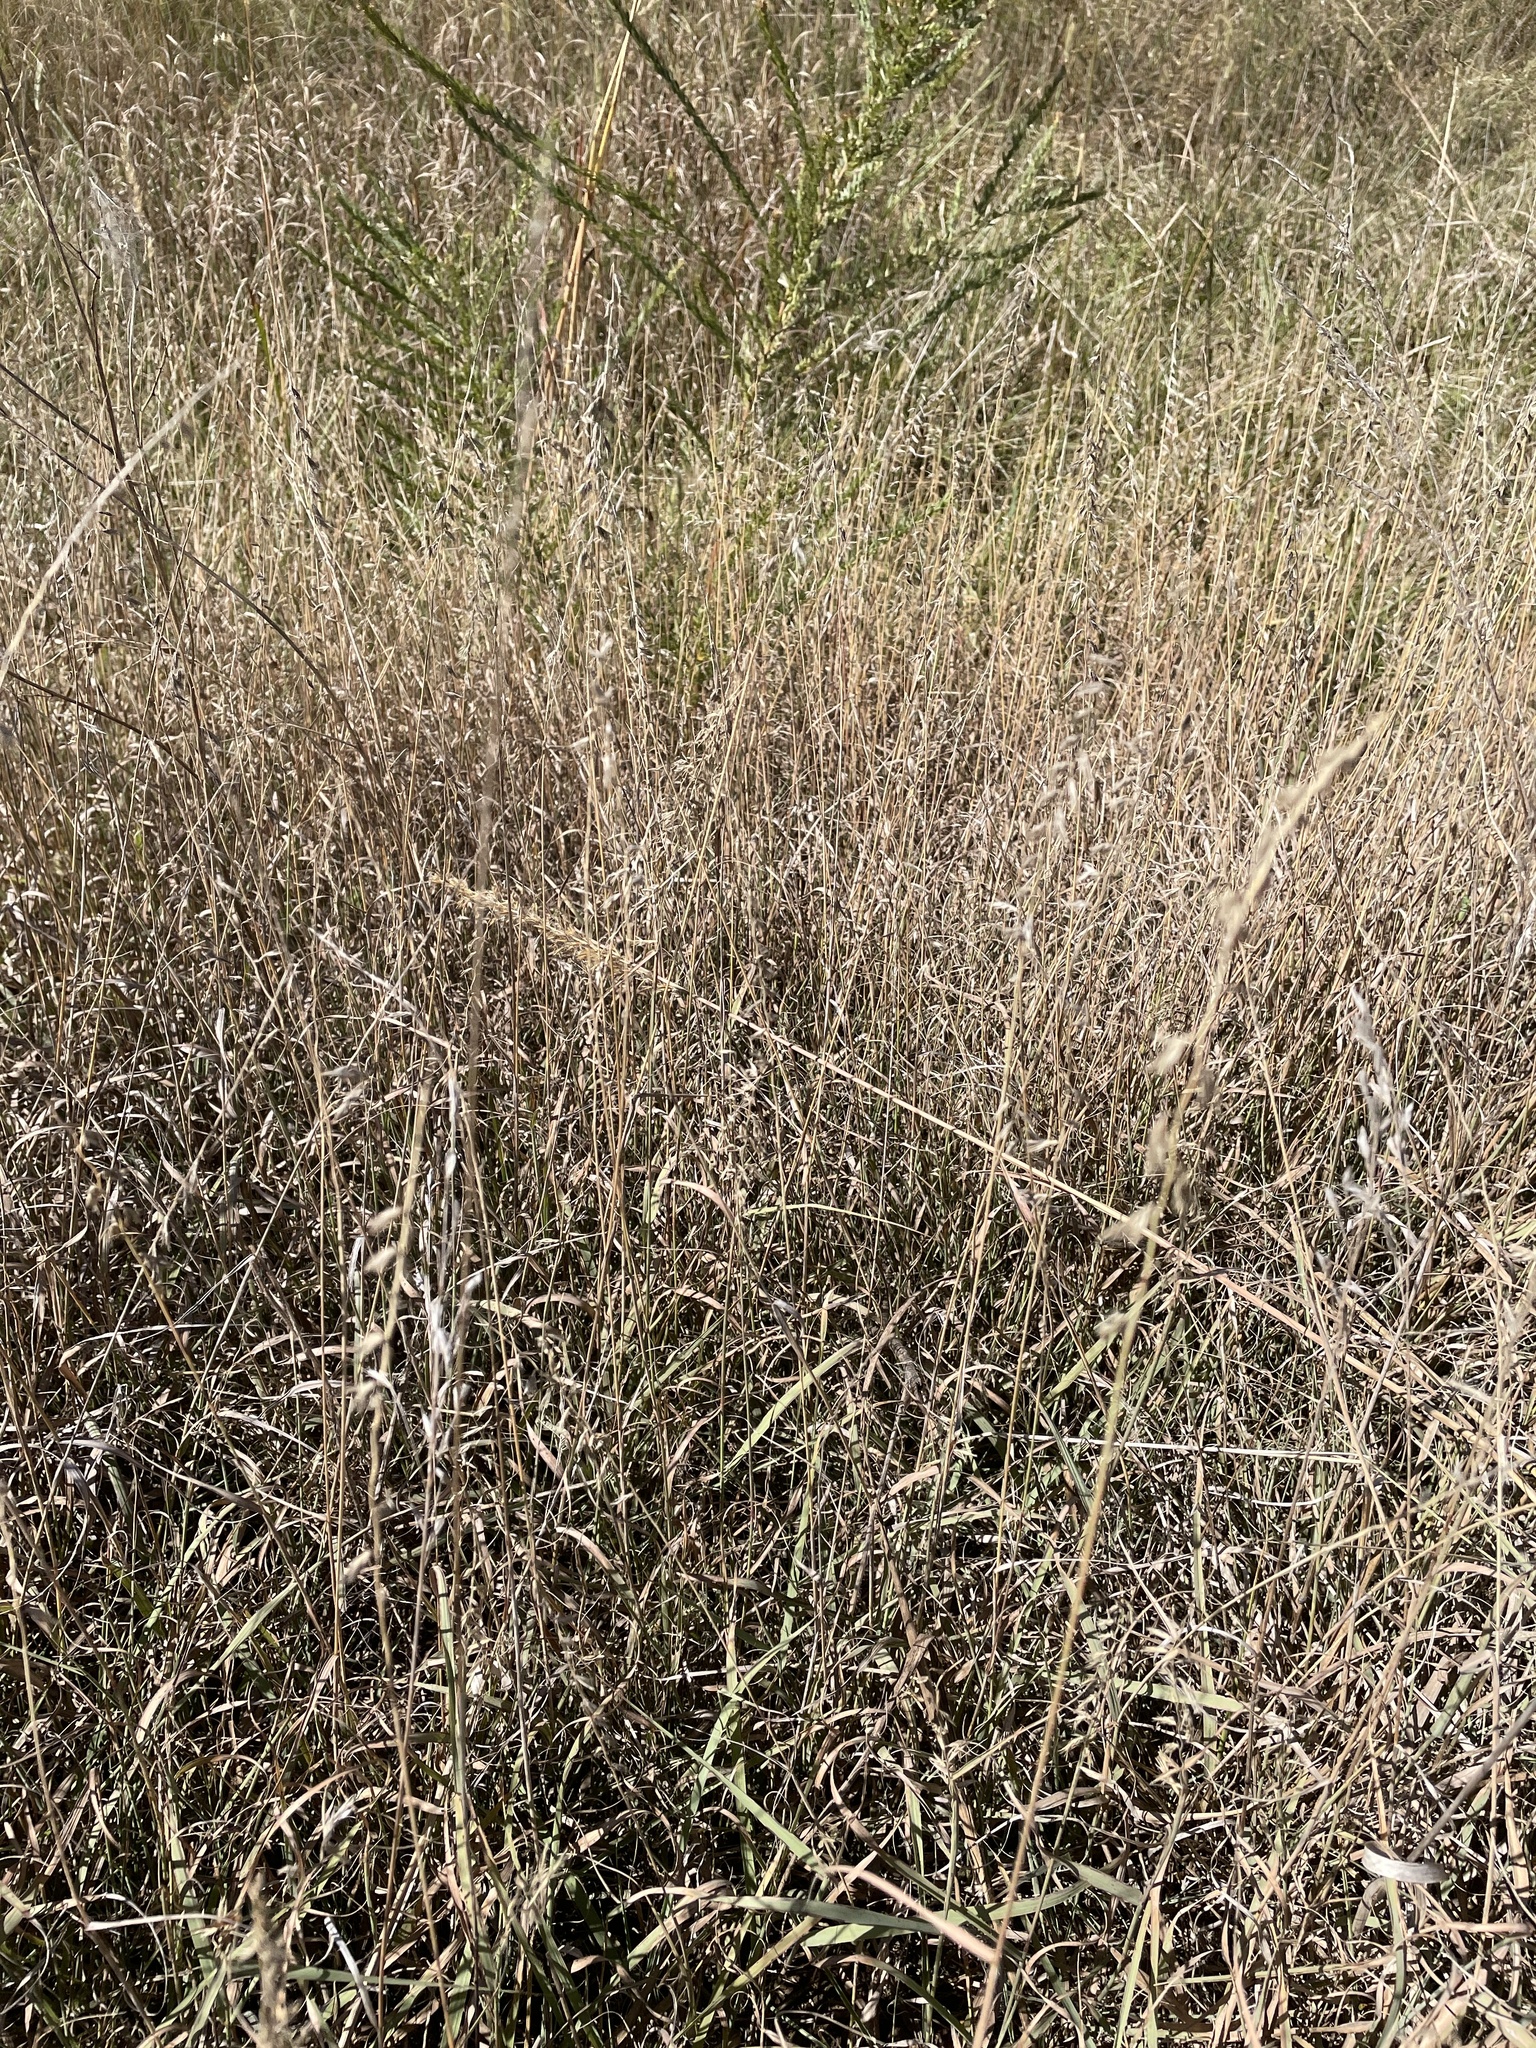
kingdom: Plantae
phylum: Tracheophyta
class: Liliopsida
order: Poales
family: Poaceae
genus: Bouteloua
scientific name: Bouteloua curtipendula
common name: Side-oats grama
